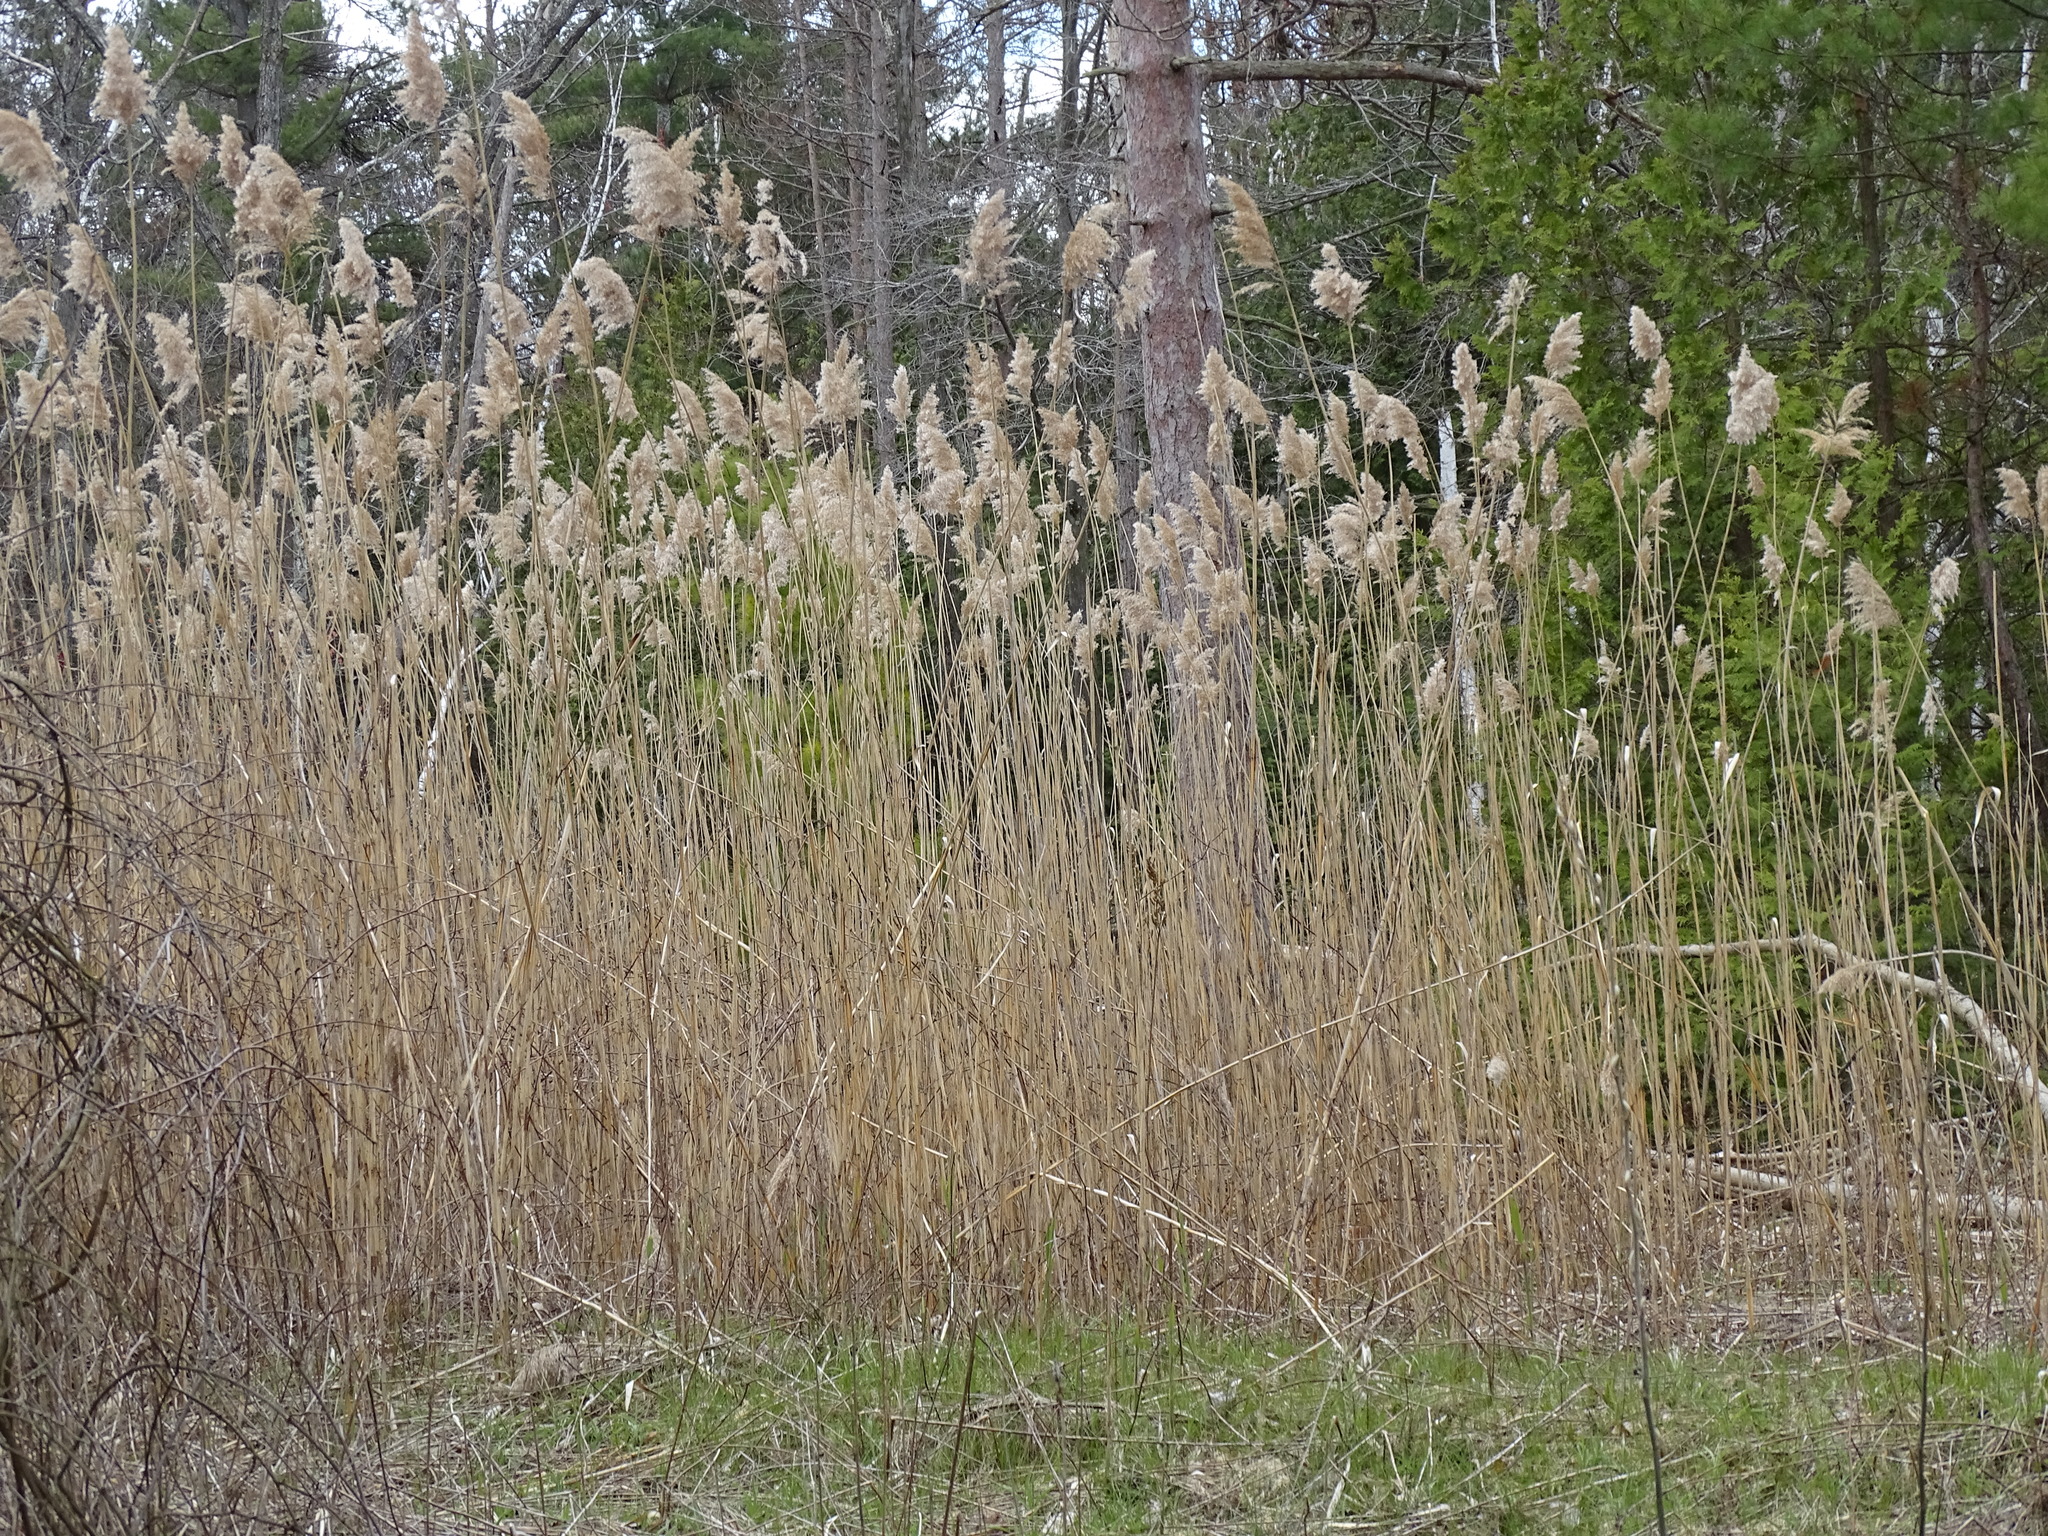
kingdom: Plantae
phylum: Tracheophyta
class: Liliopsida
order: Poales
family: Poaceae
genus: Phragmites
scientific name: Phragmites australis
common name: Common reed
